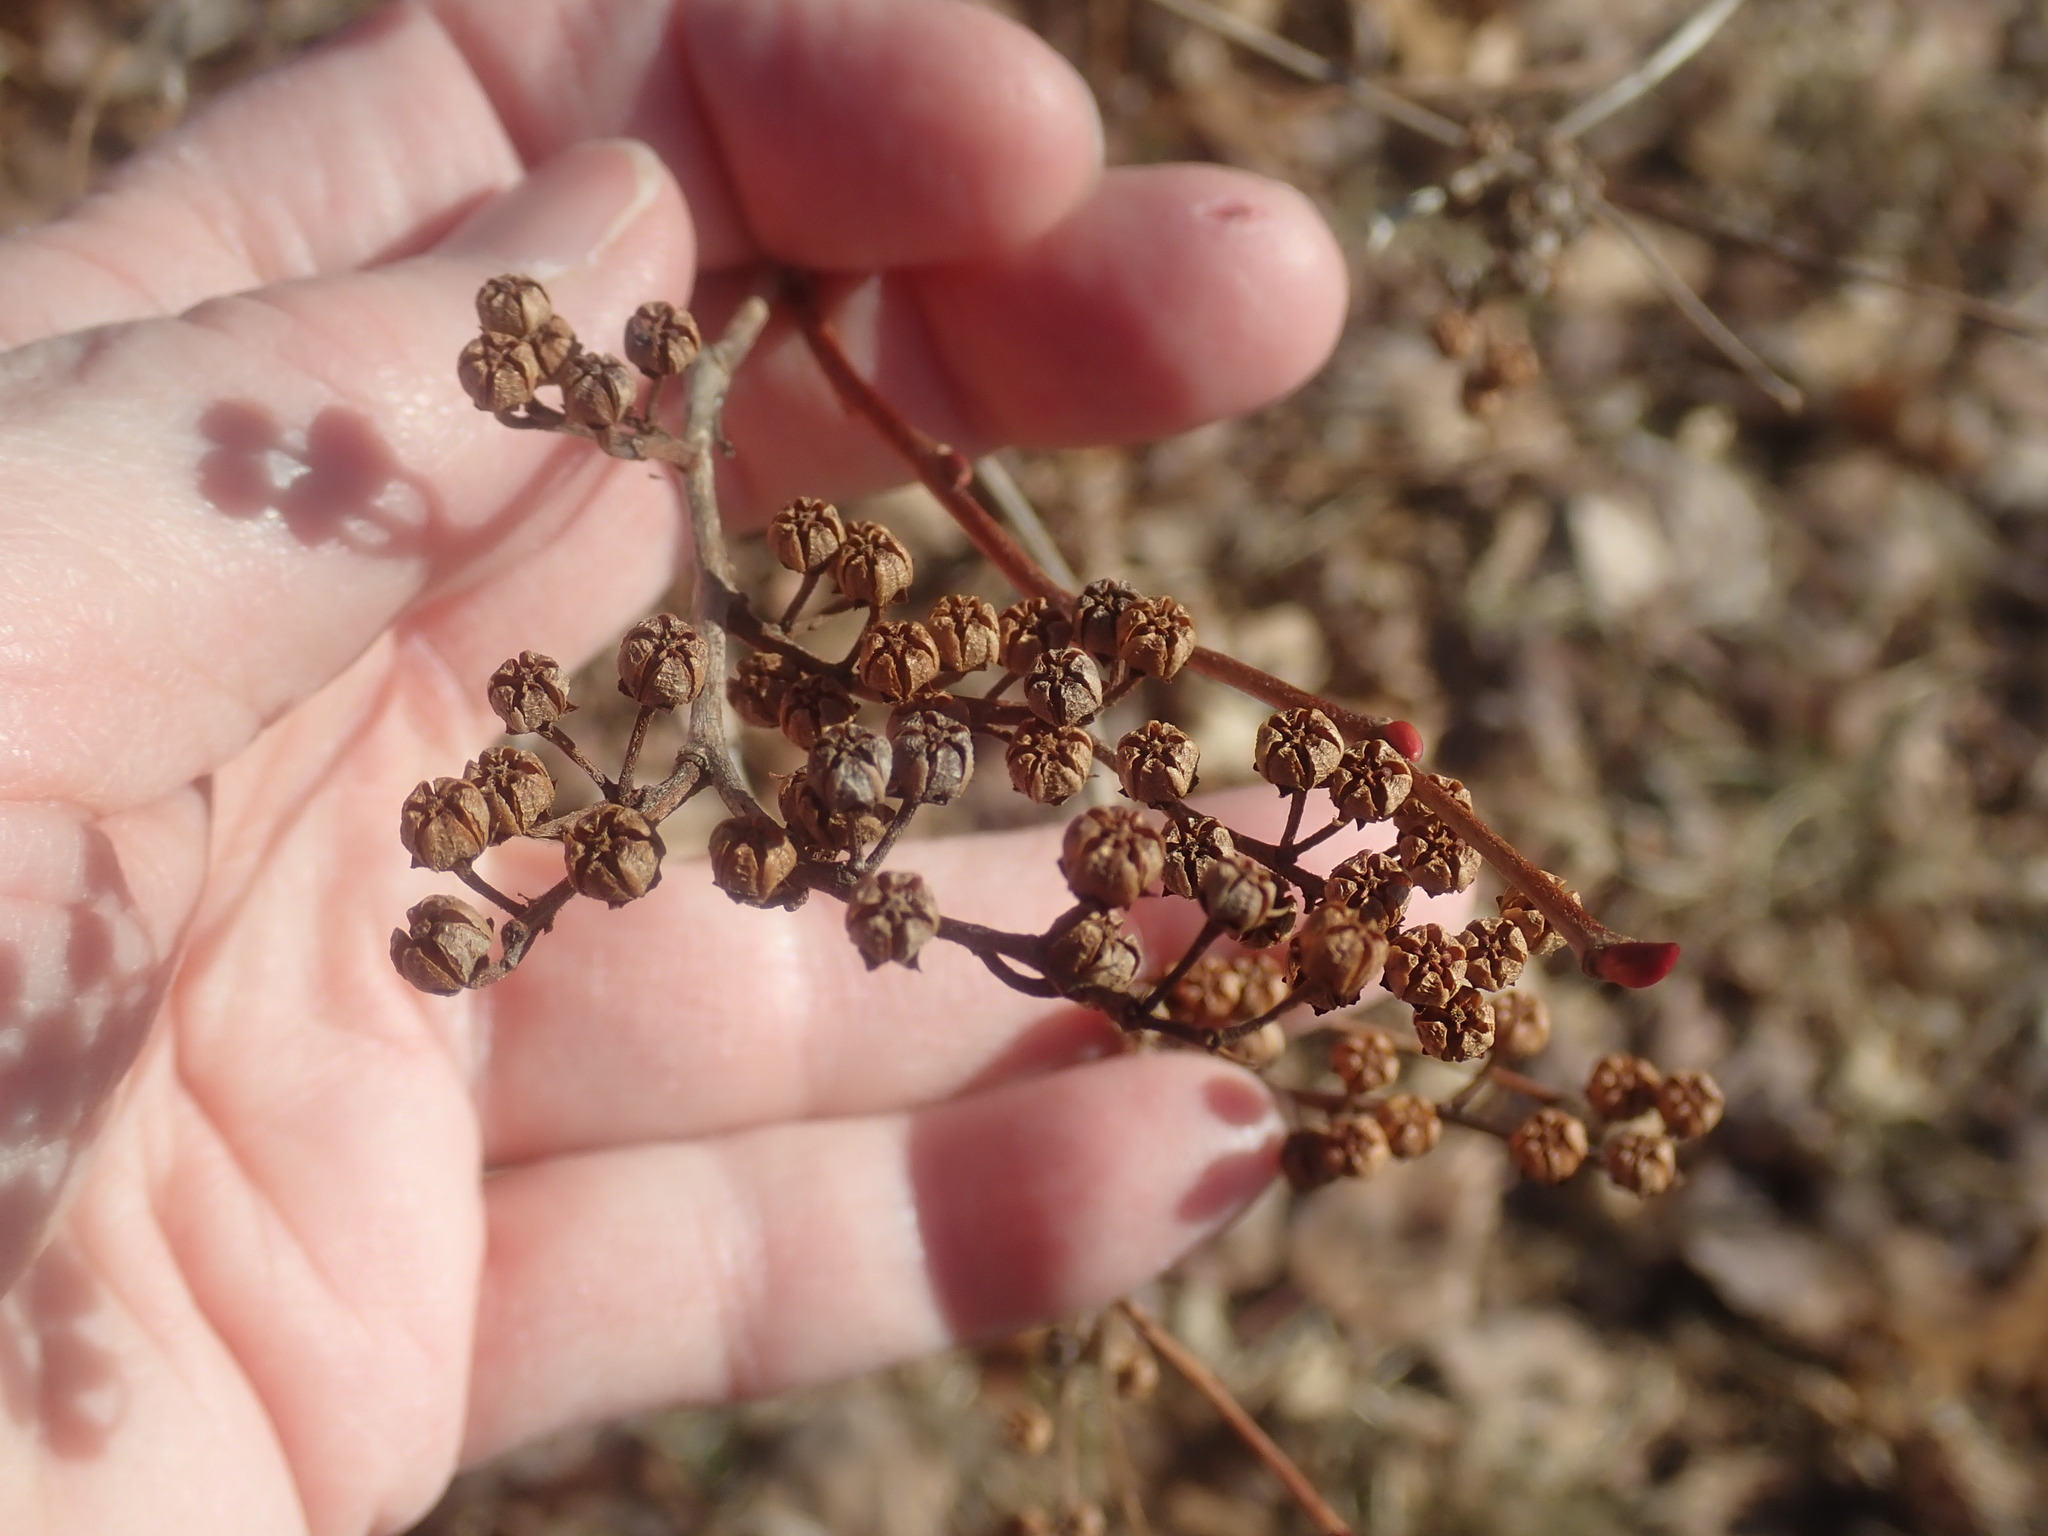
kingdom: Plantae
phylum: Tracheophyta
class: Magnoliopsida
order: Ericales
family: Ericaceae
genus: Lyonia
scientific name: Lyonia ligustrina
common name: Maleberry
